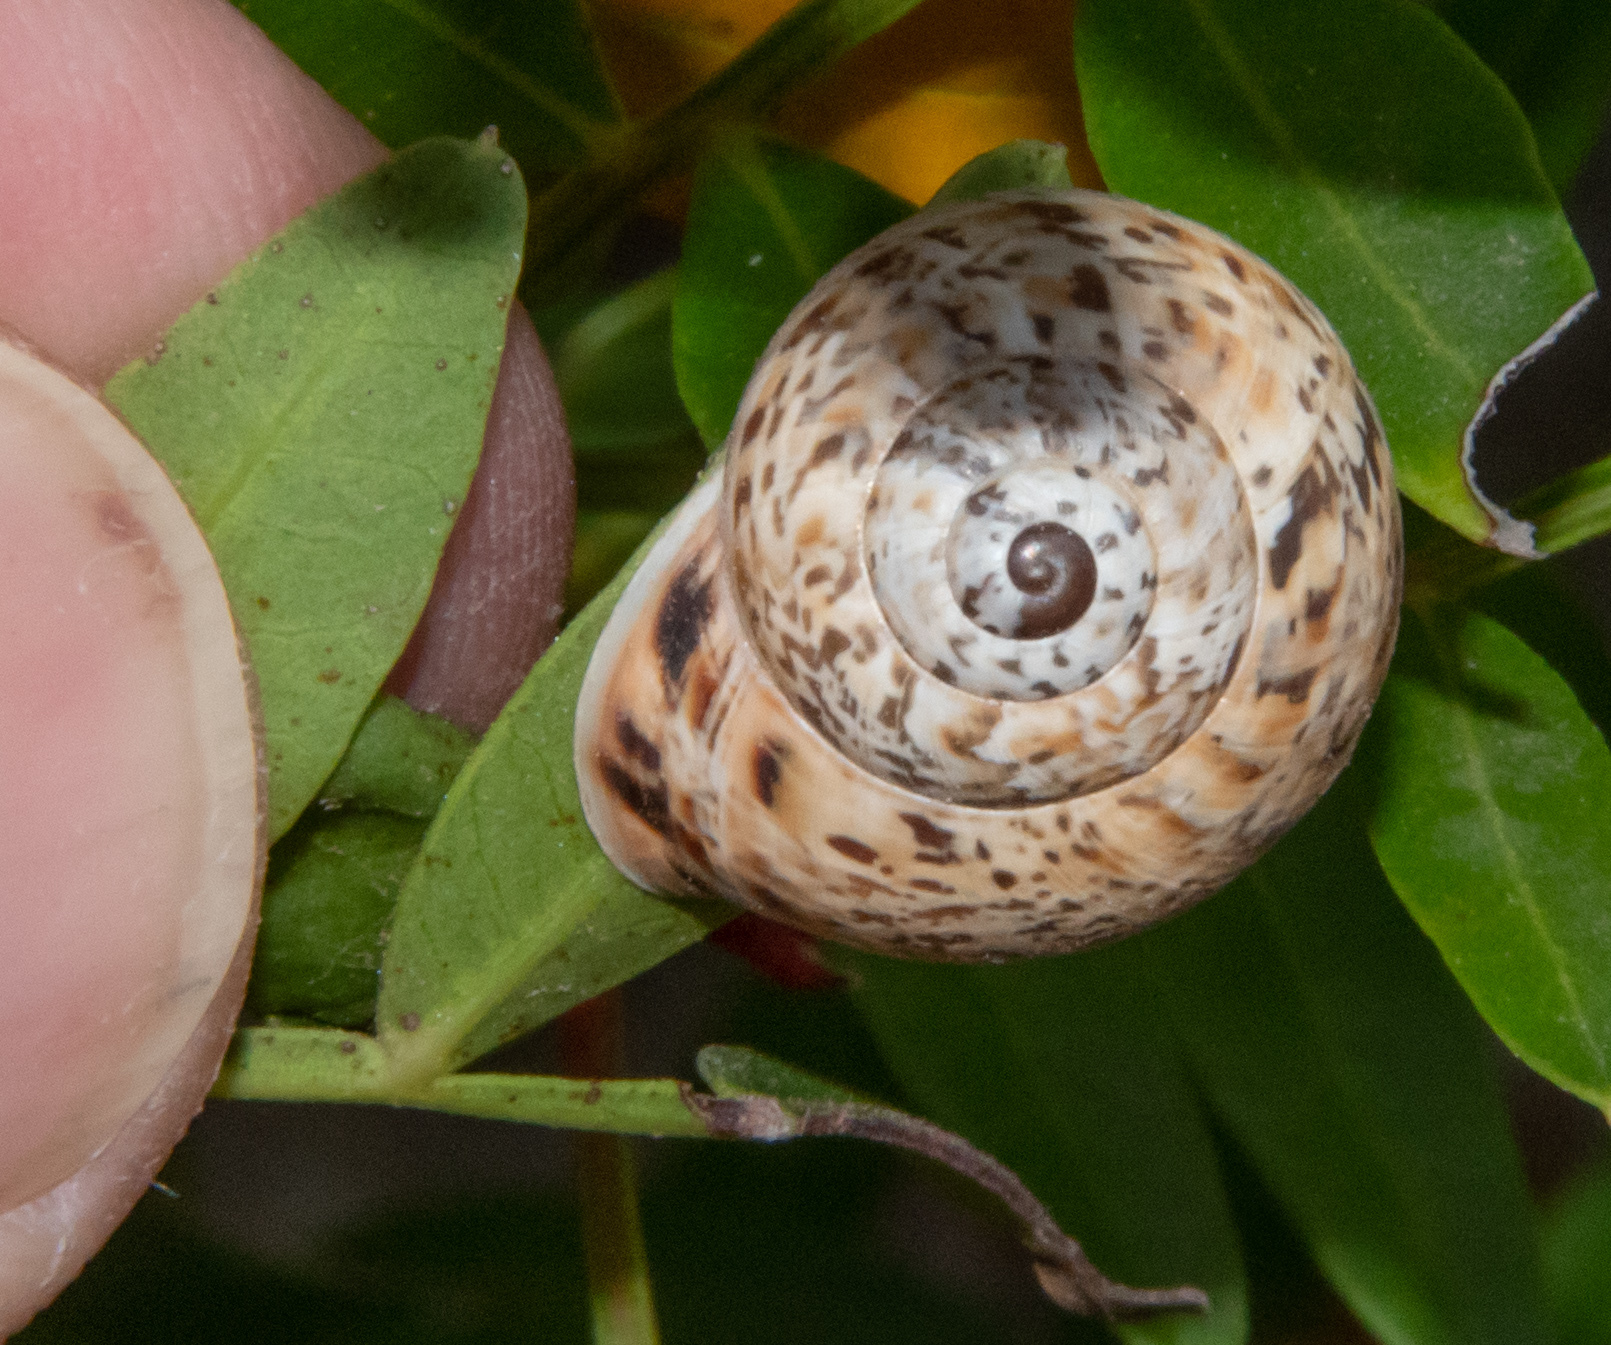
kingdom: Animalia
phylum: Mollusca
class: Gastropoda
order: Stylommatophora
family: Helicidae
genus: Allognathus
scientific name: Allognathus balearicus
